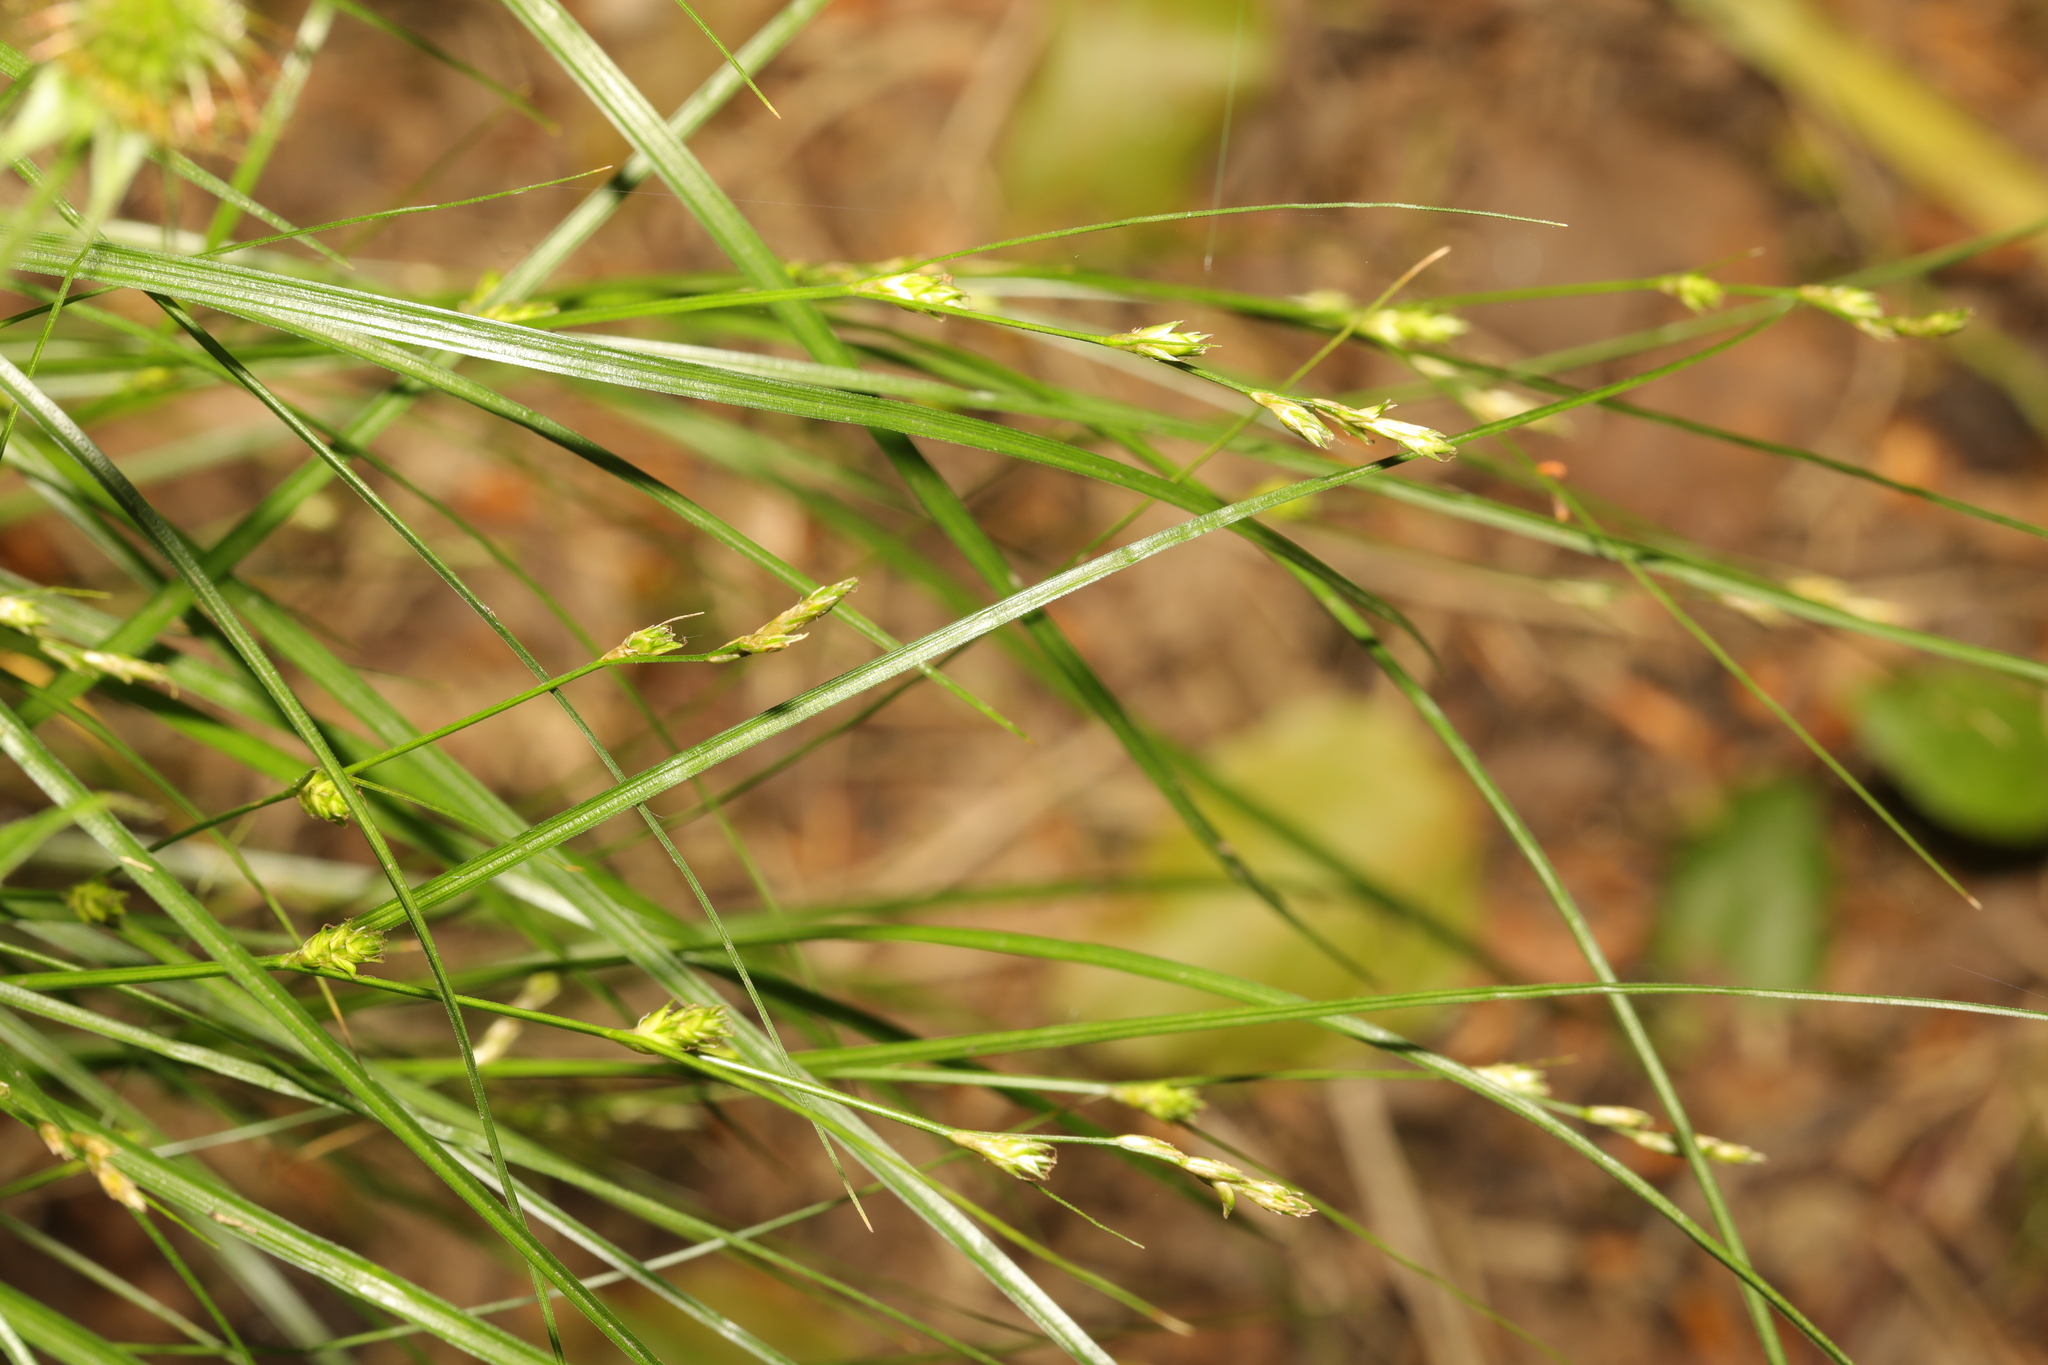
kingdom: Plantae
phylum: Tracheophyta
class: Liliopsida
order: Poales
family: Cyperaceae
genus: Carex
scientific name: Carex remota
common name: Remote sedge
